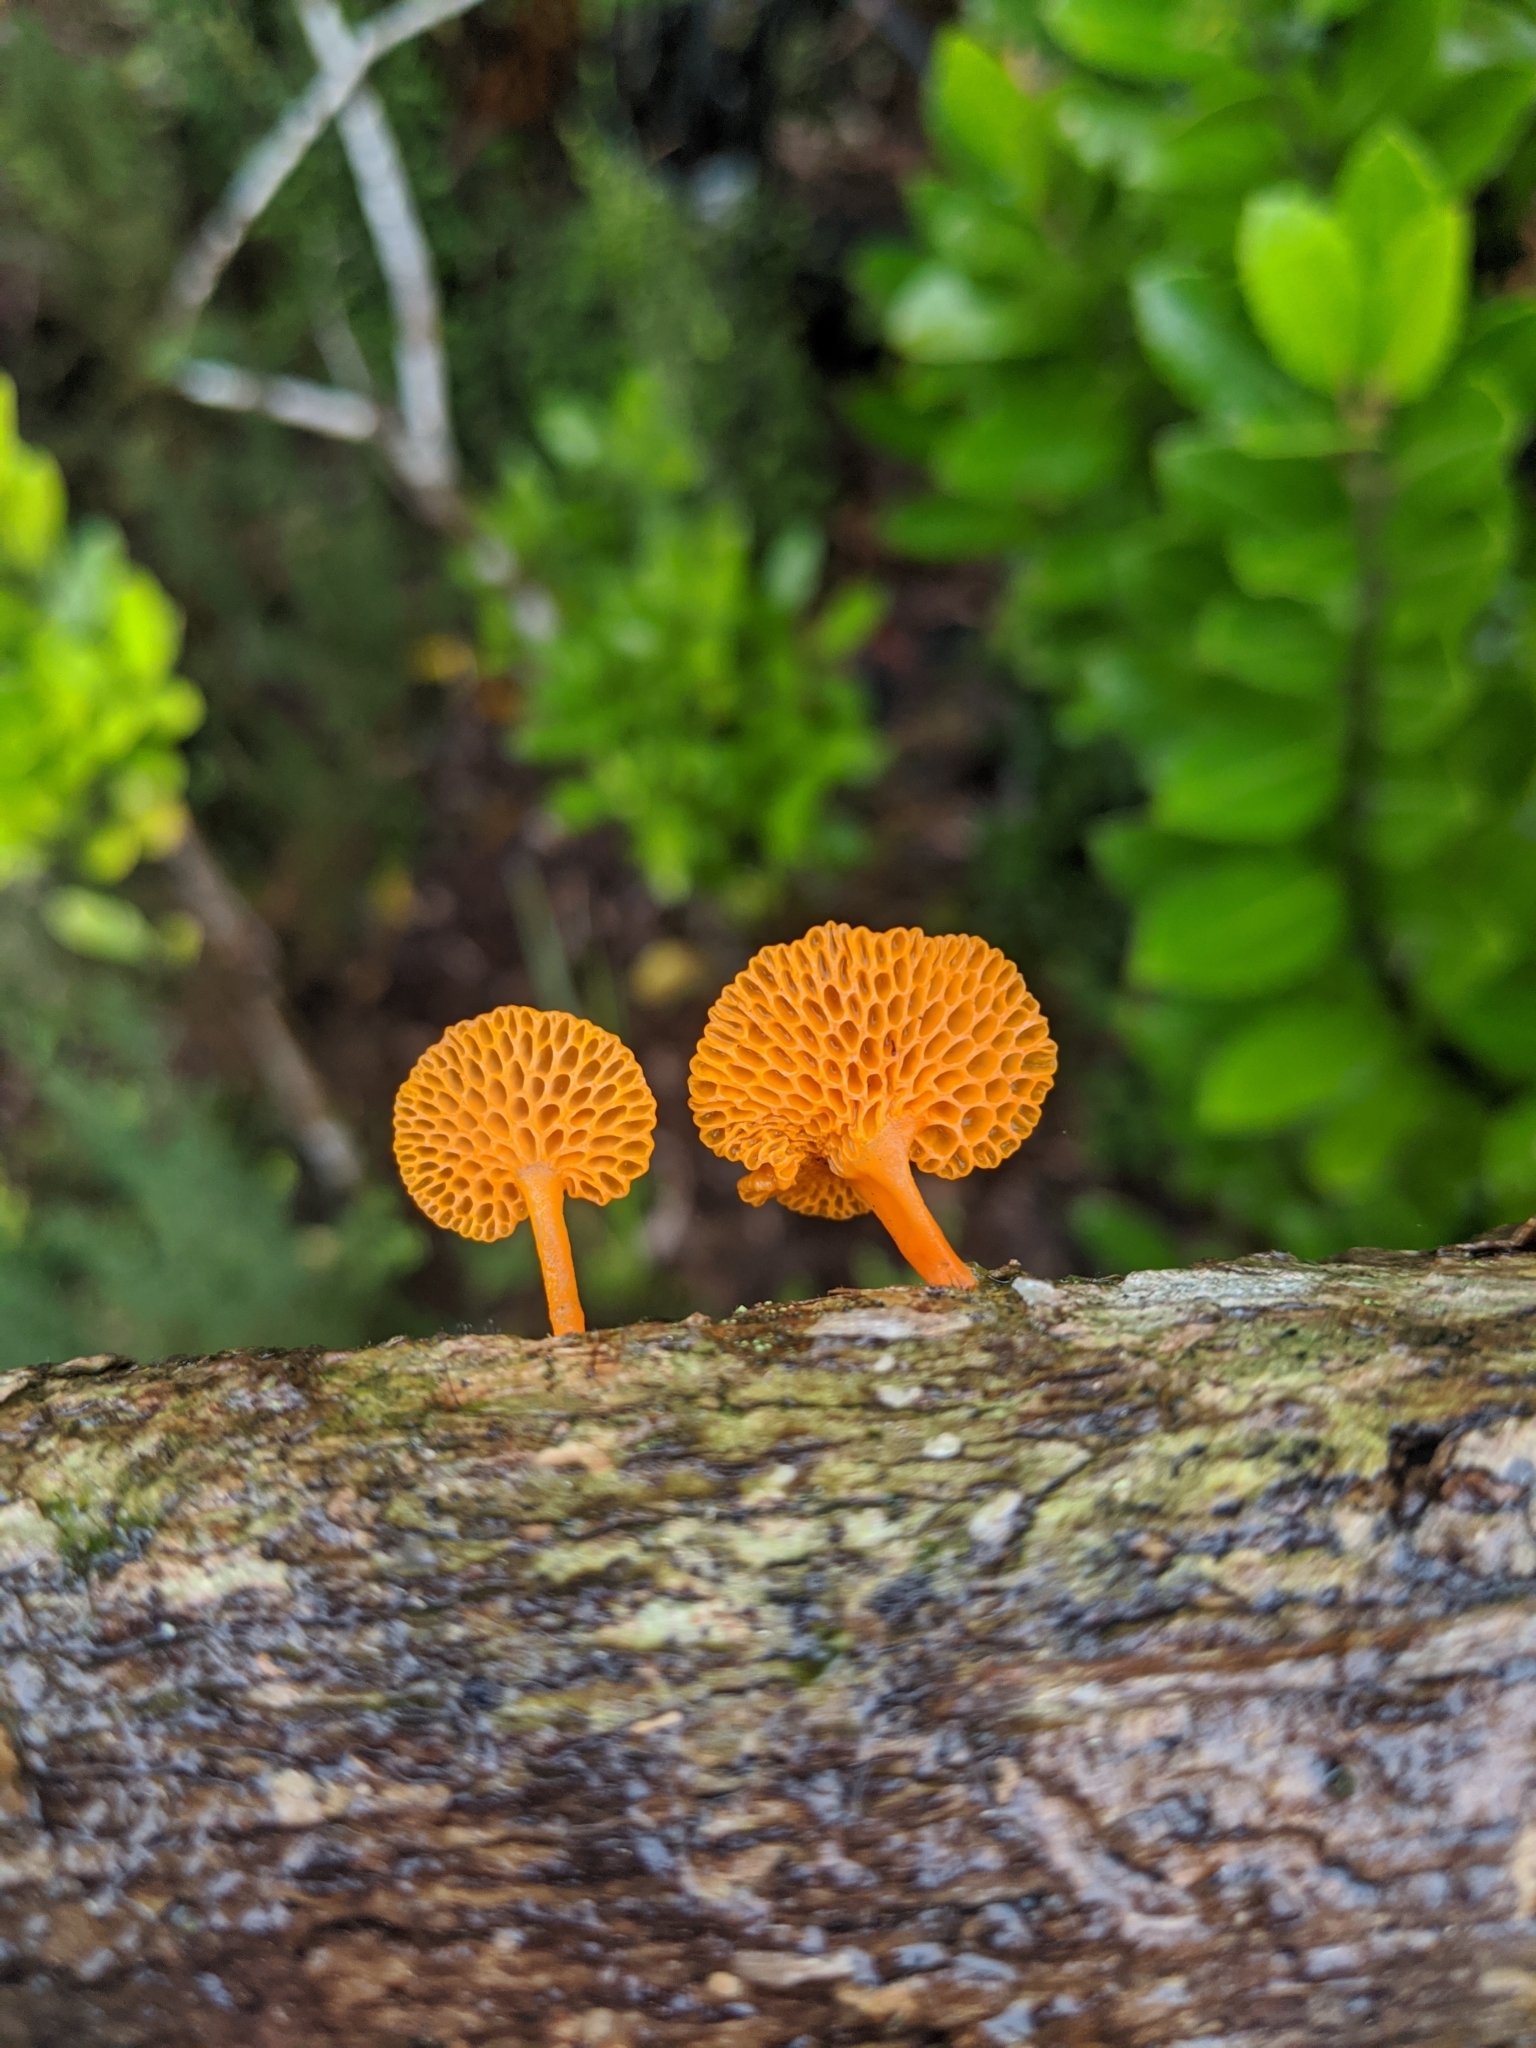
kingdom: Fungi
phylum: Basidiomycota
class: Agaricomycetes
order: Agaricales
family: Mycenaceae
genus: Favolaschia
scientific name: Favolaschia claudopus
